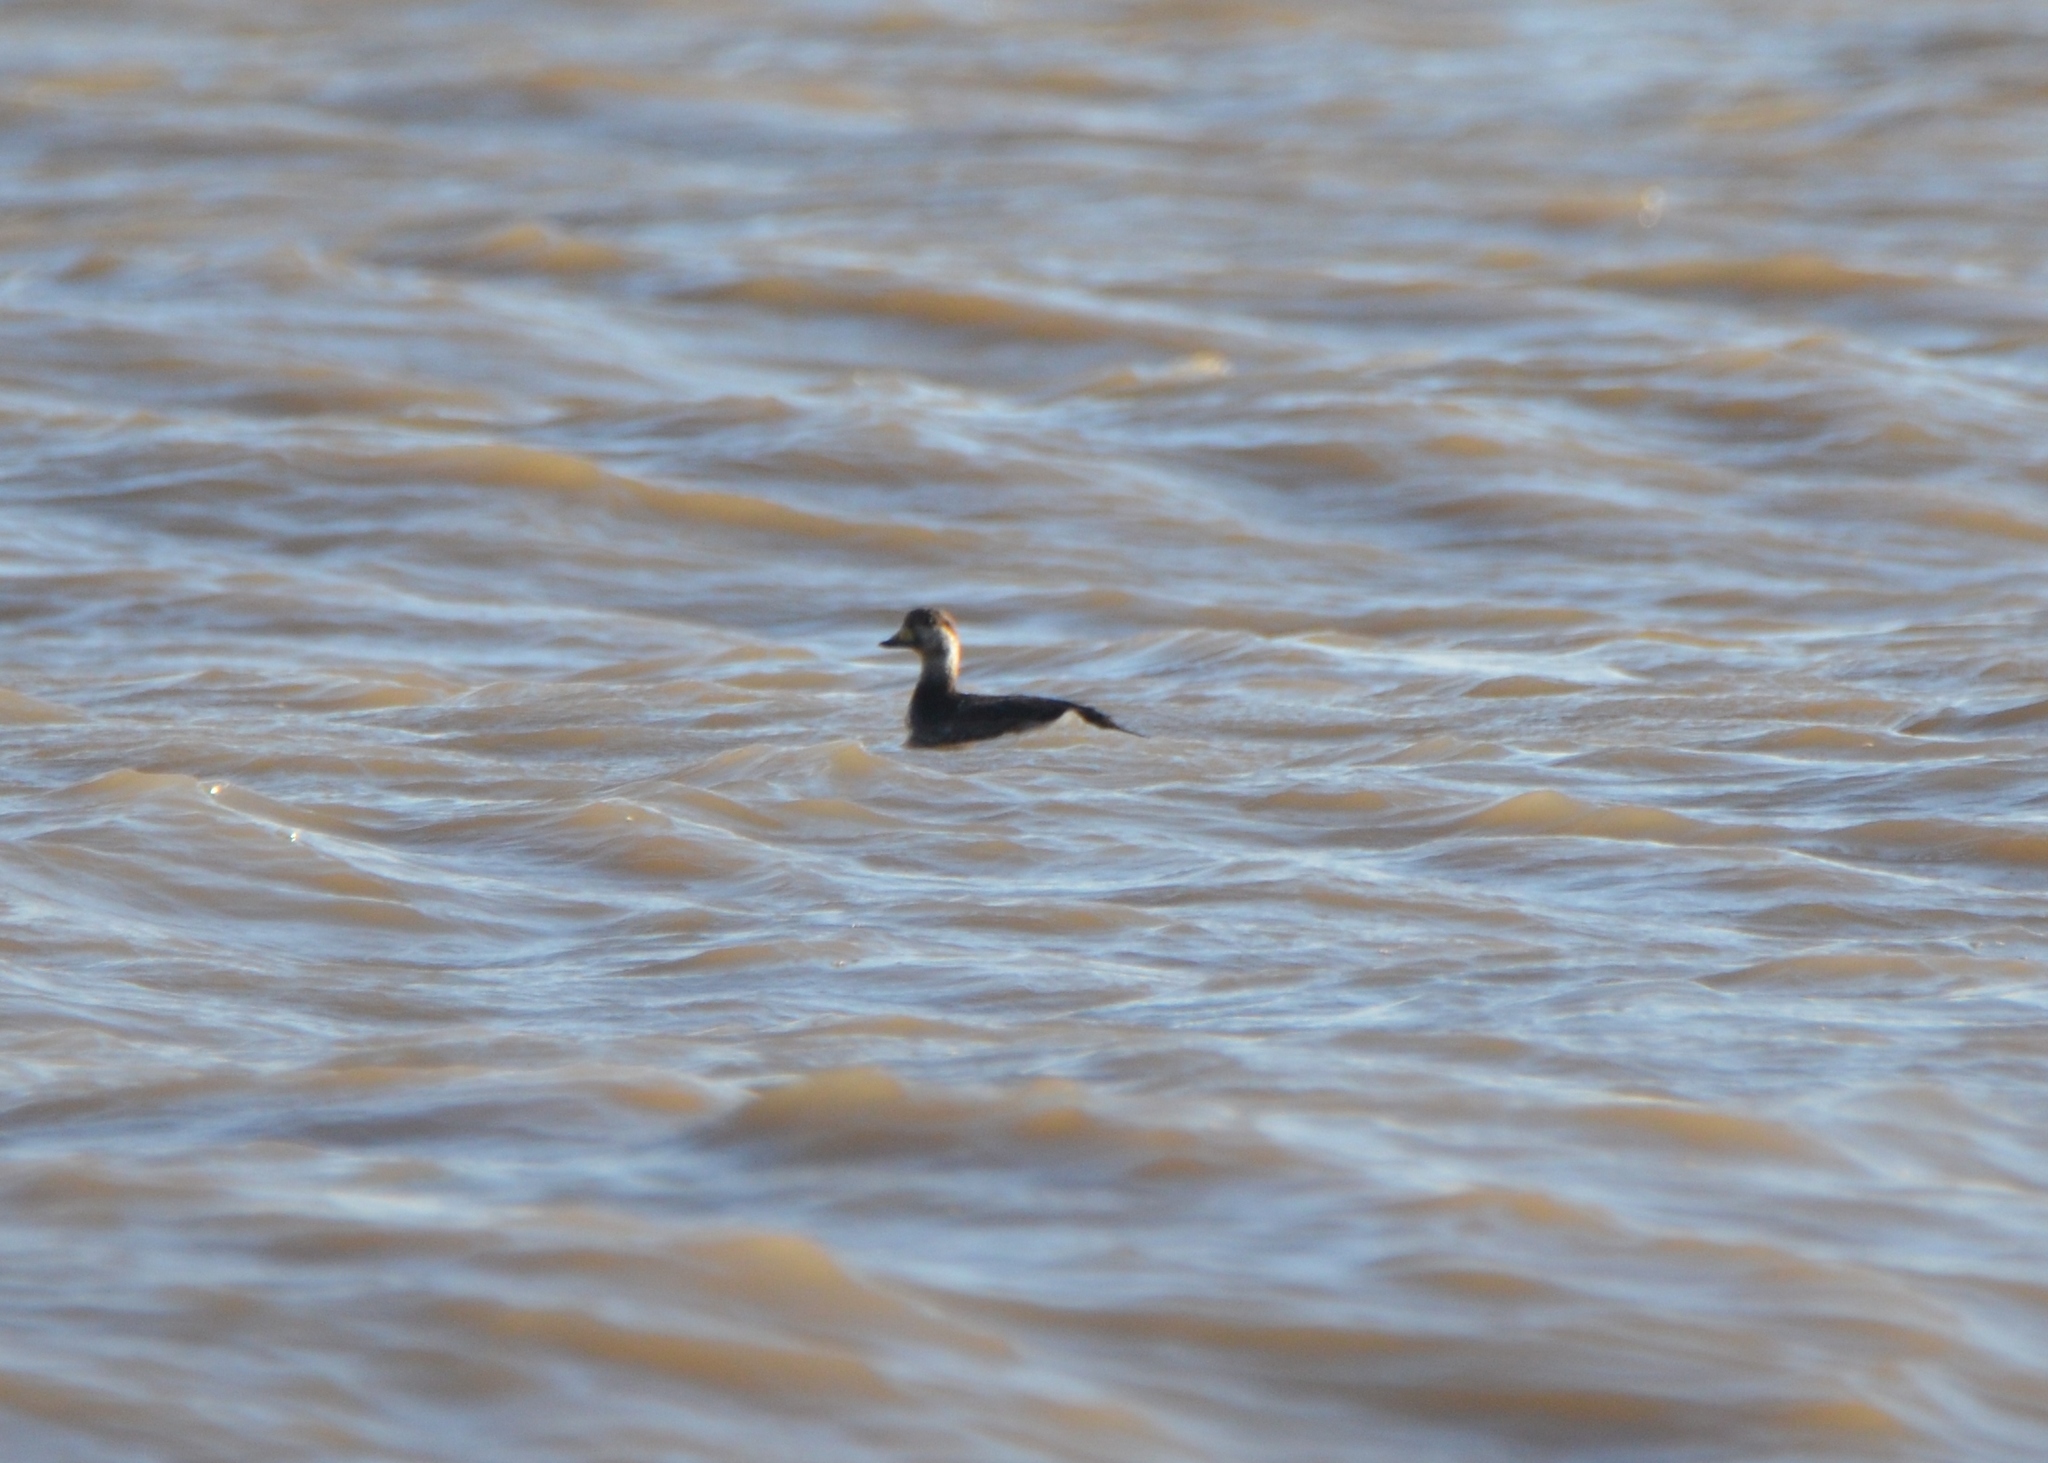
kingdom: Animalia
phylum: Chordata
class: Aves
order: Anseriformes
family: Anatidae
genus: Melanitta
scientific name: Melanitta americana
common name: Black scoter
